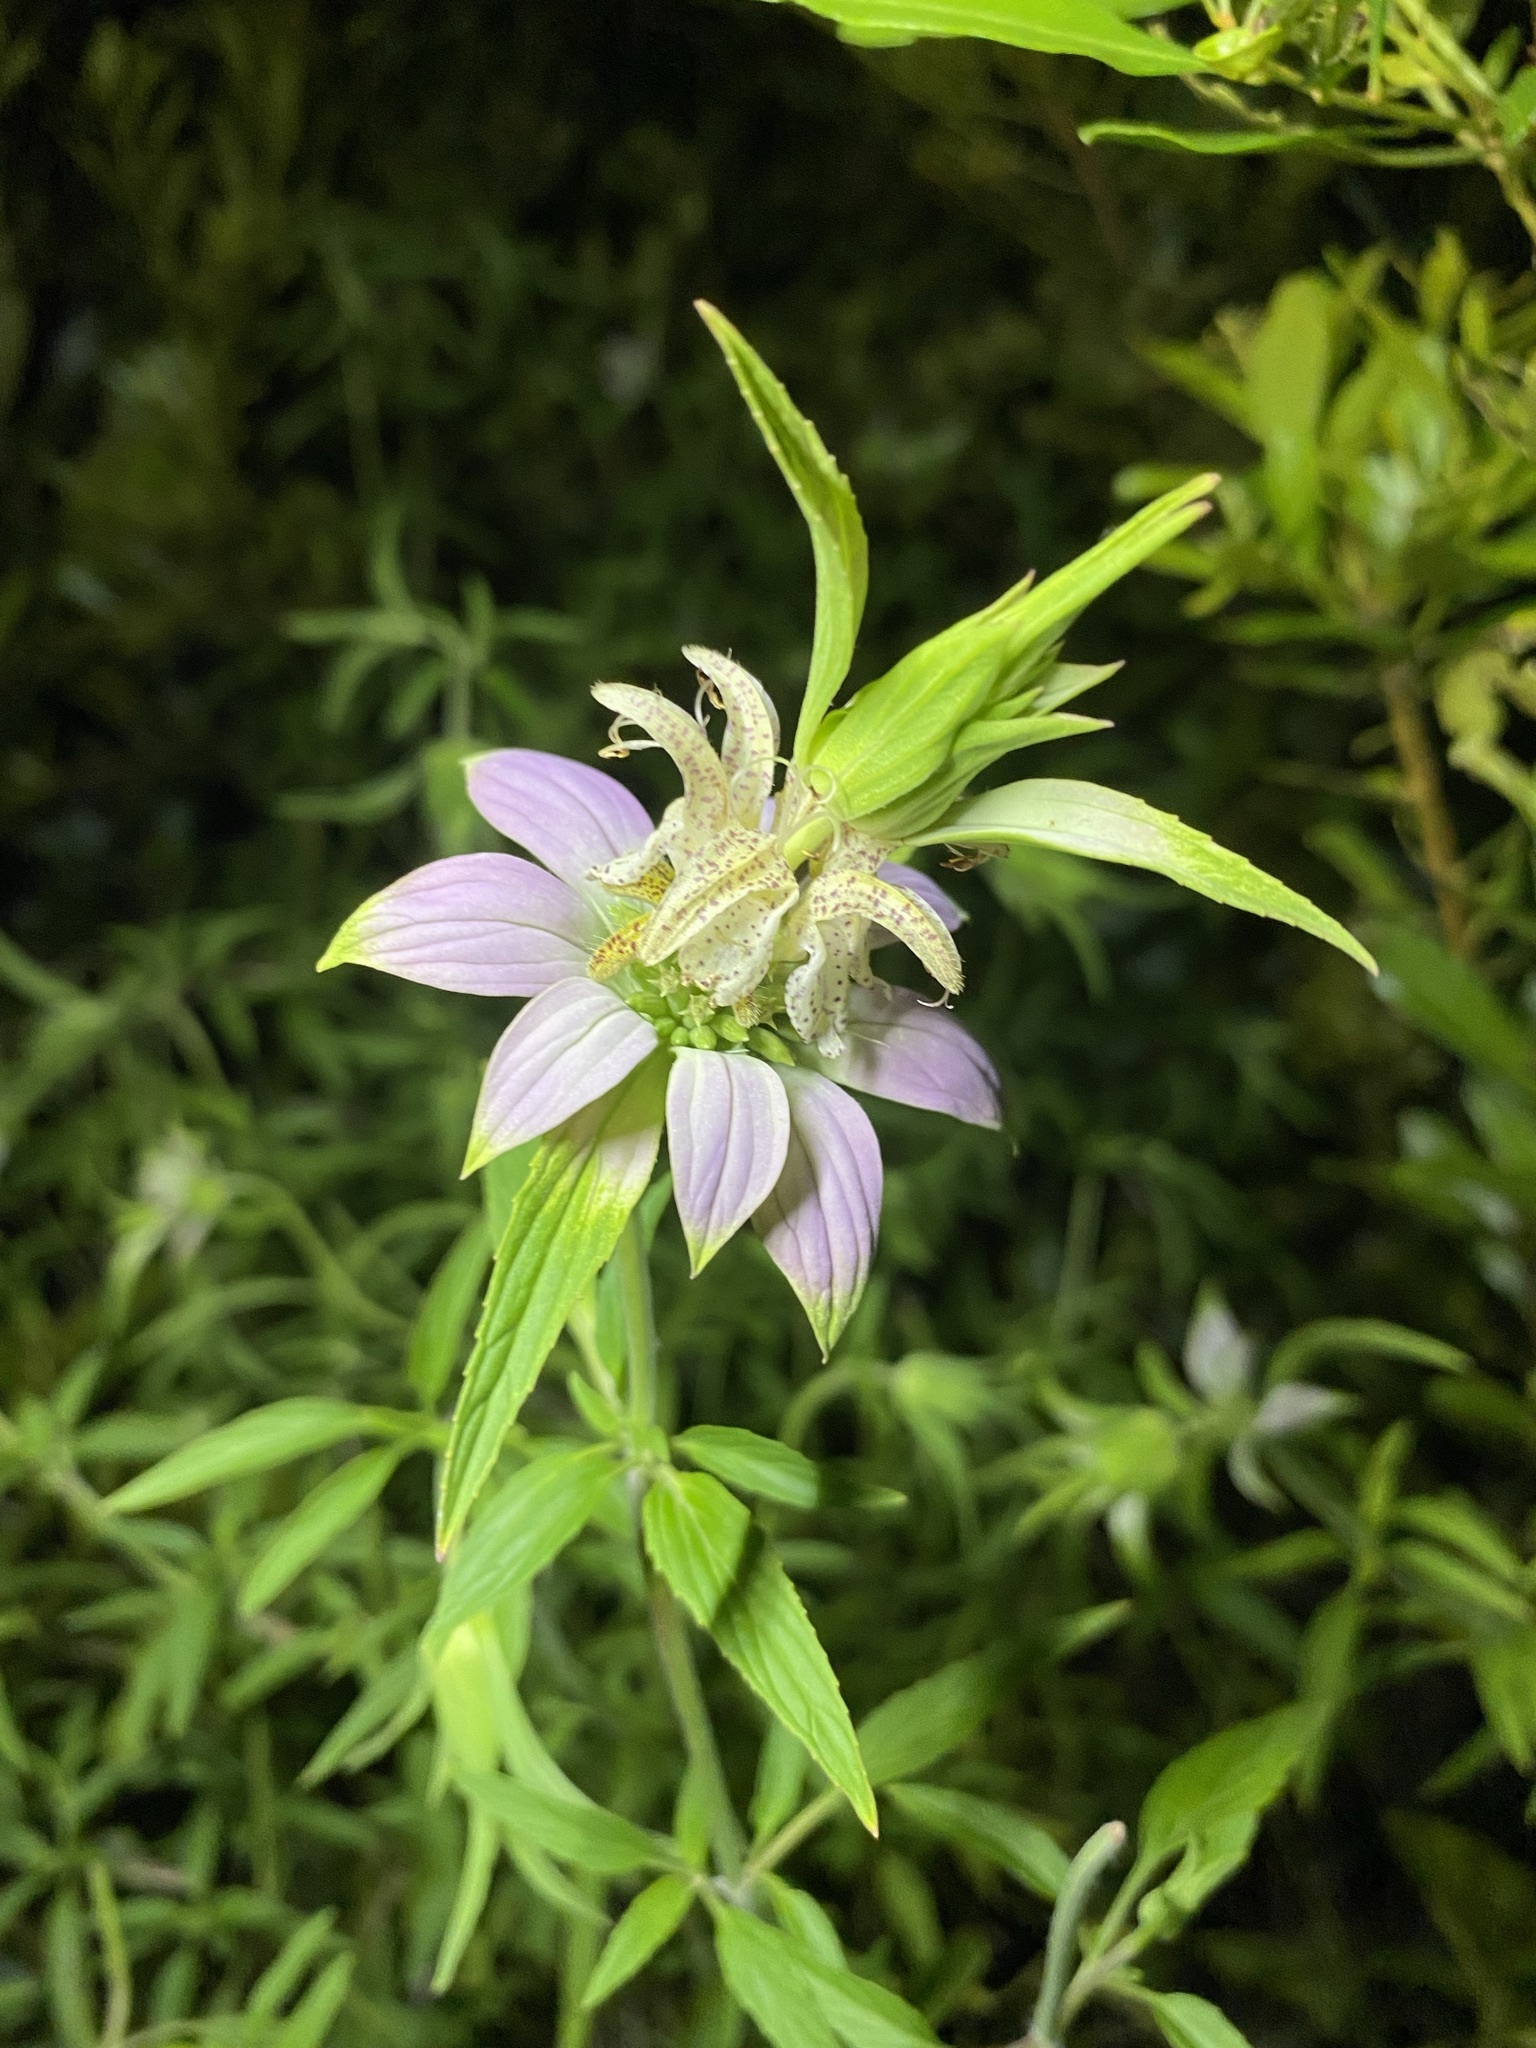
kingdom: Plantae
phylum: Tracheophyta
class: Magnoliopsida
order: Lamiales
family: Lamiaceae
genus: Monarda
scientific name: Monarda punctata
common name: Dotted monarda
